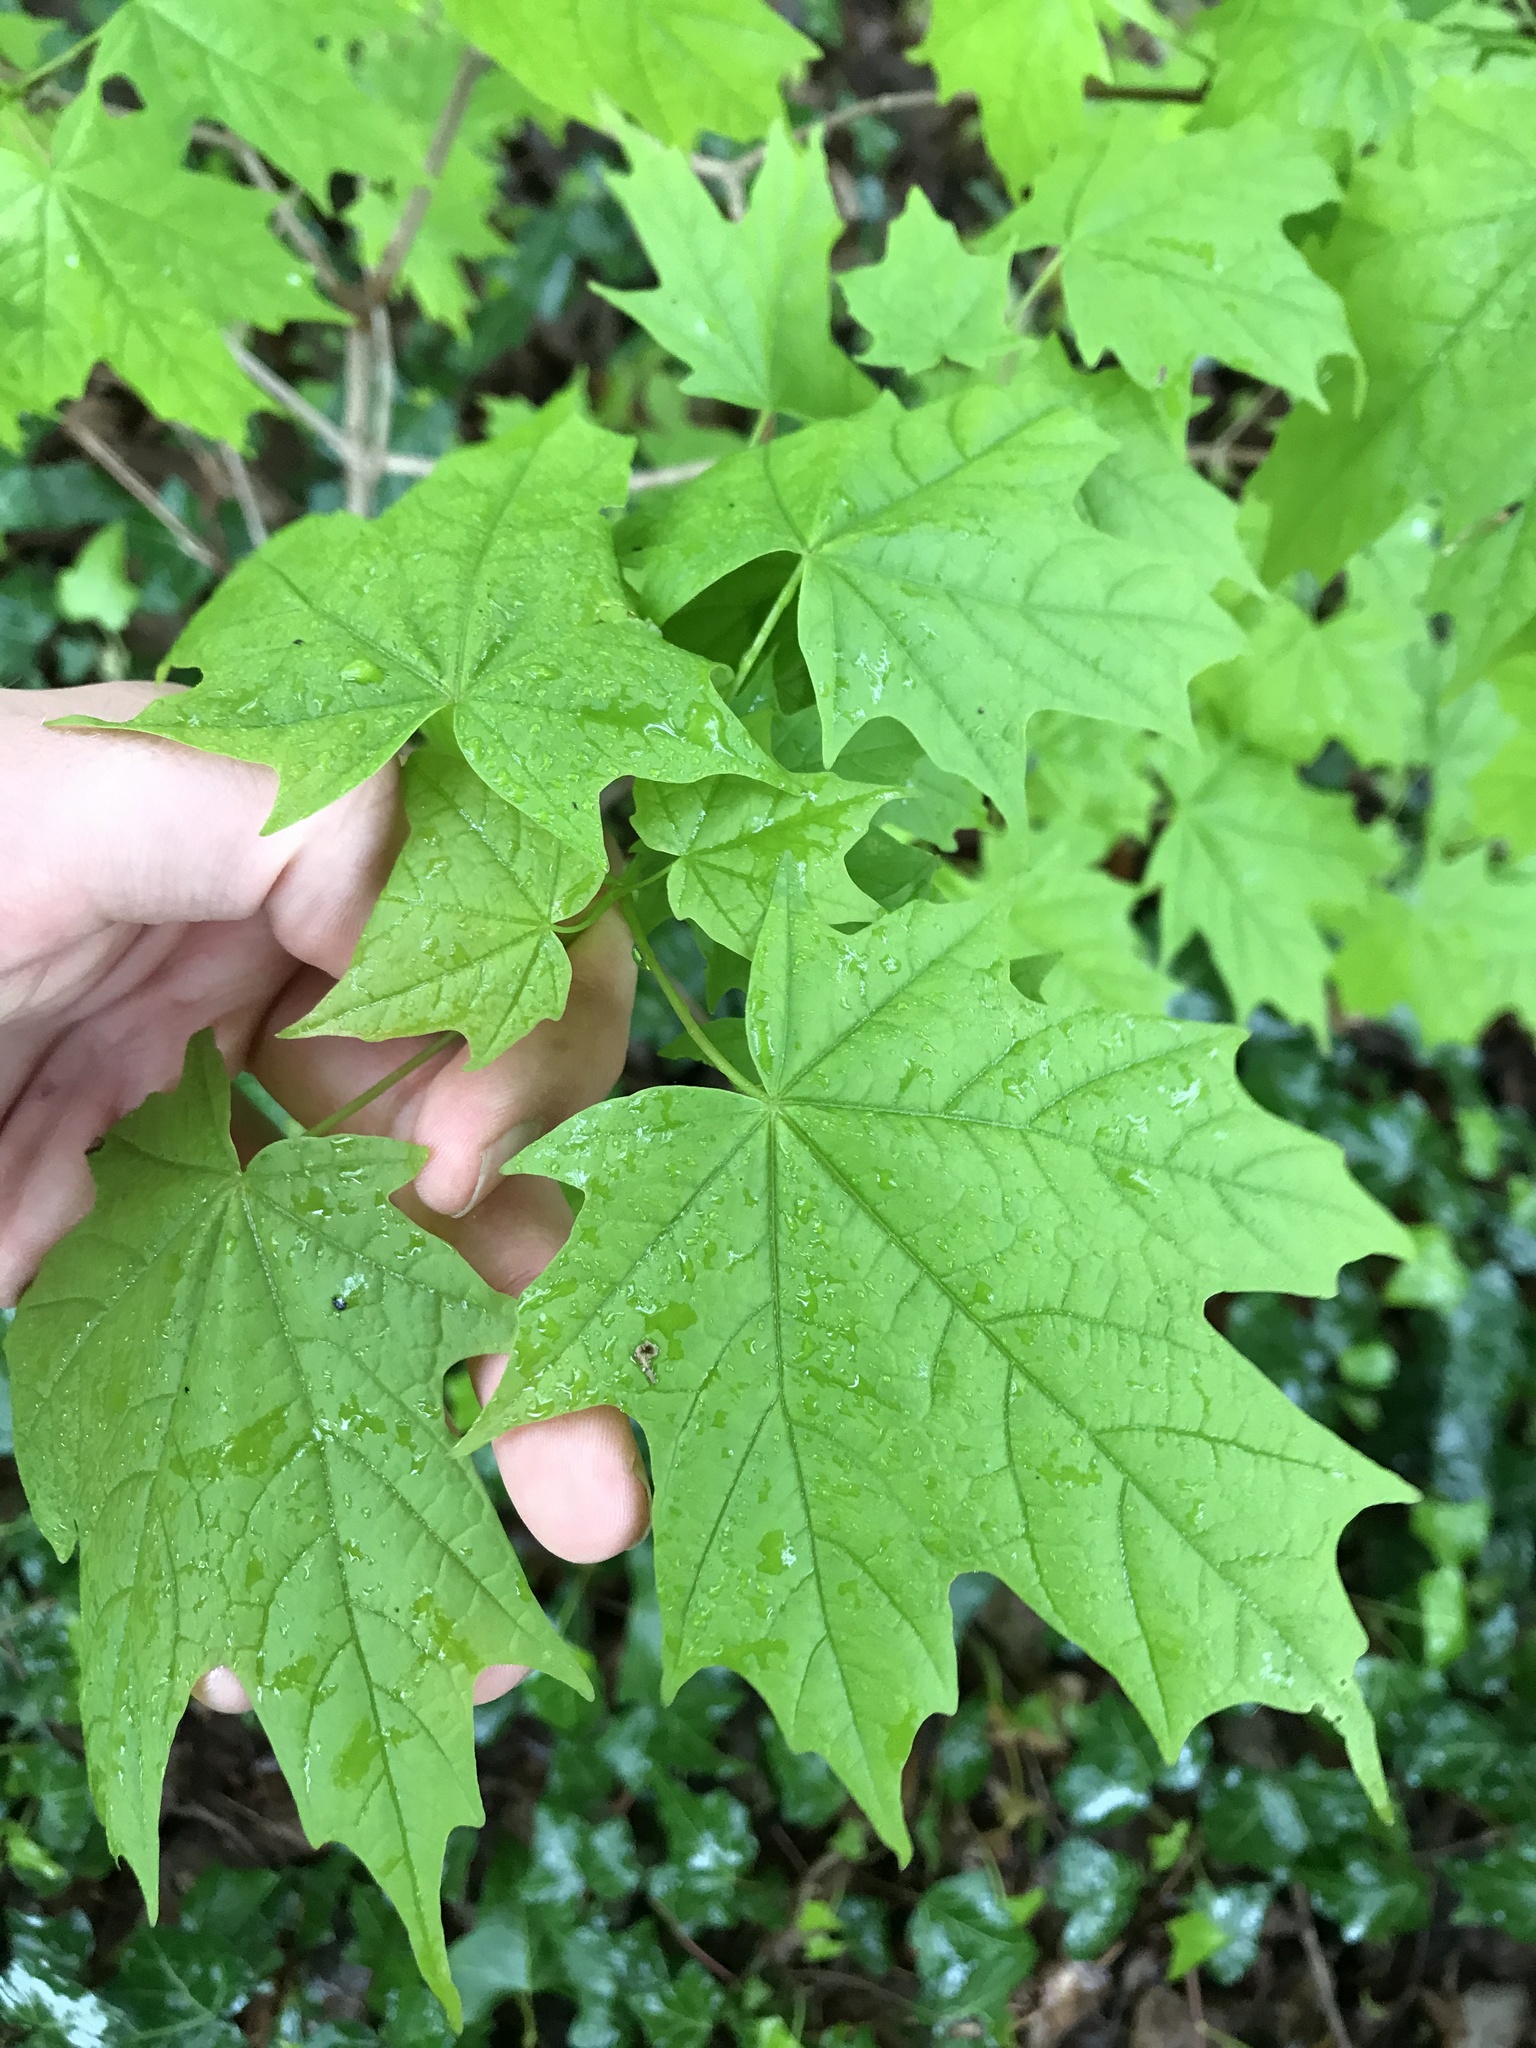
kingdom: Plantae
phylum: Tracheophyta
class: Magnoliopsida
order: Sapindales
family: Sapindaceae
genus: Acer
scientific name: Acer saccharum
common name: Sugar maple
